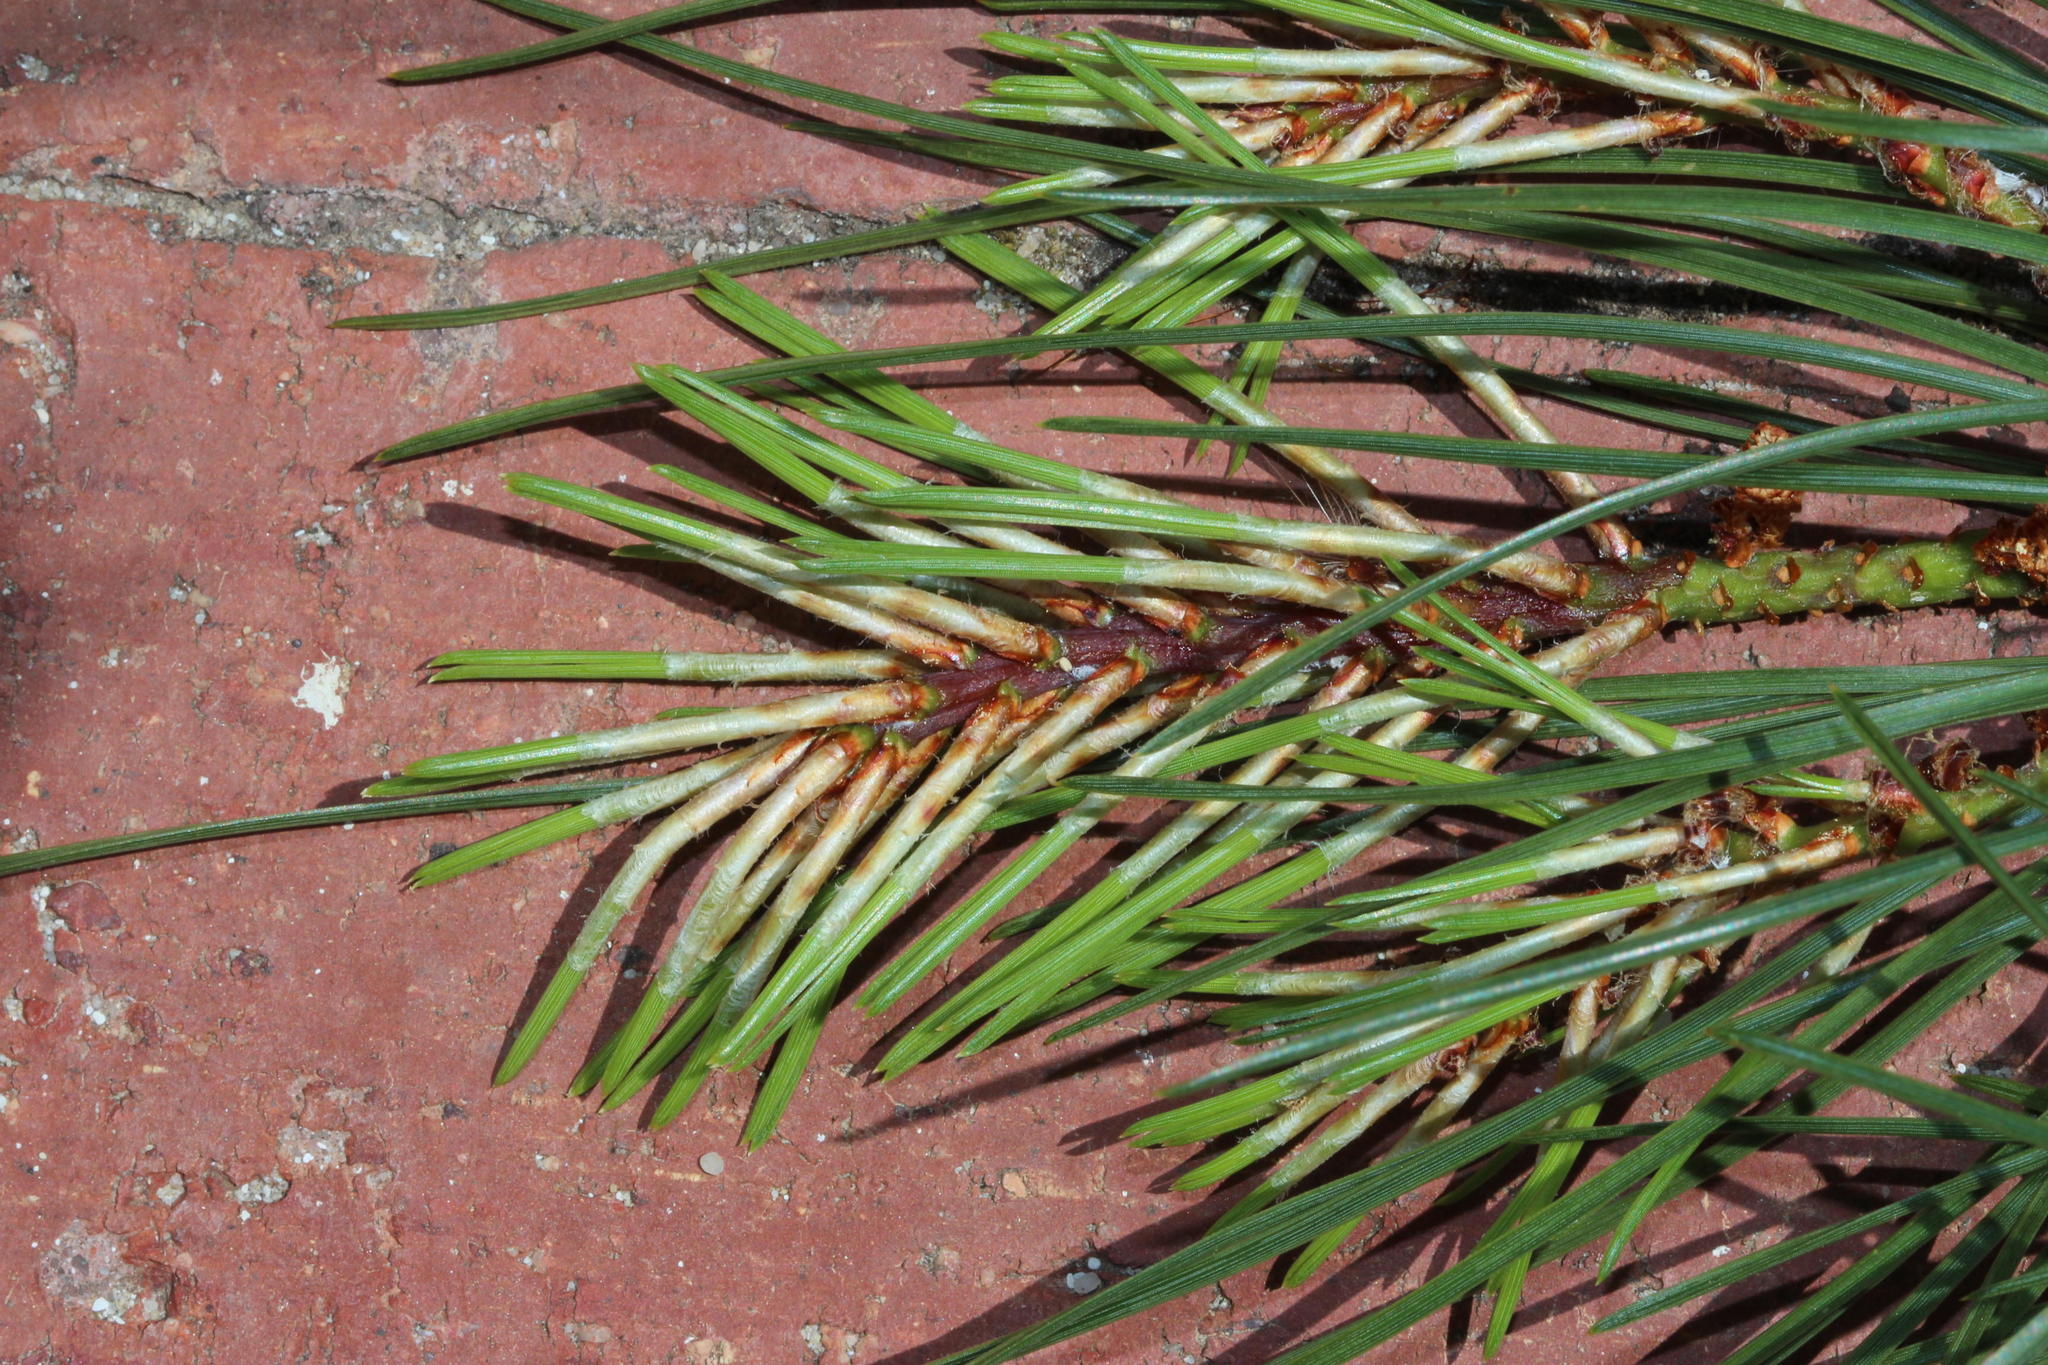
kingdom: Plantae
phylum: Tracheophyta
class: Pinopsida
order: Pinales
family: Pinaceae
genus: Pinus
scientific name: Pinus pinaster
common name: Maritime pine
